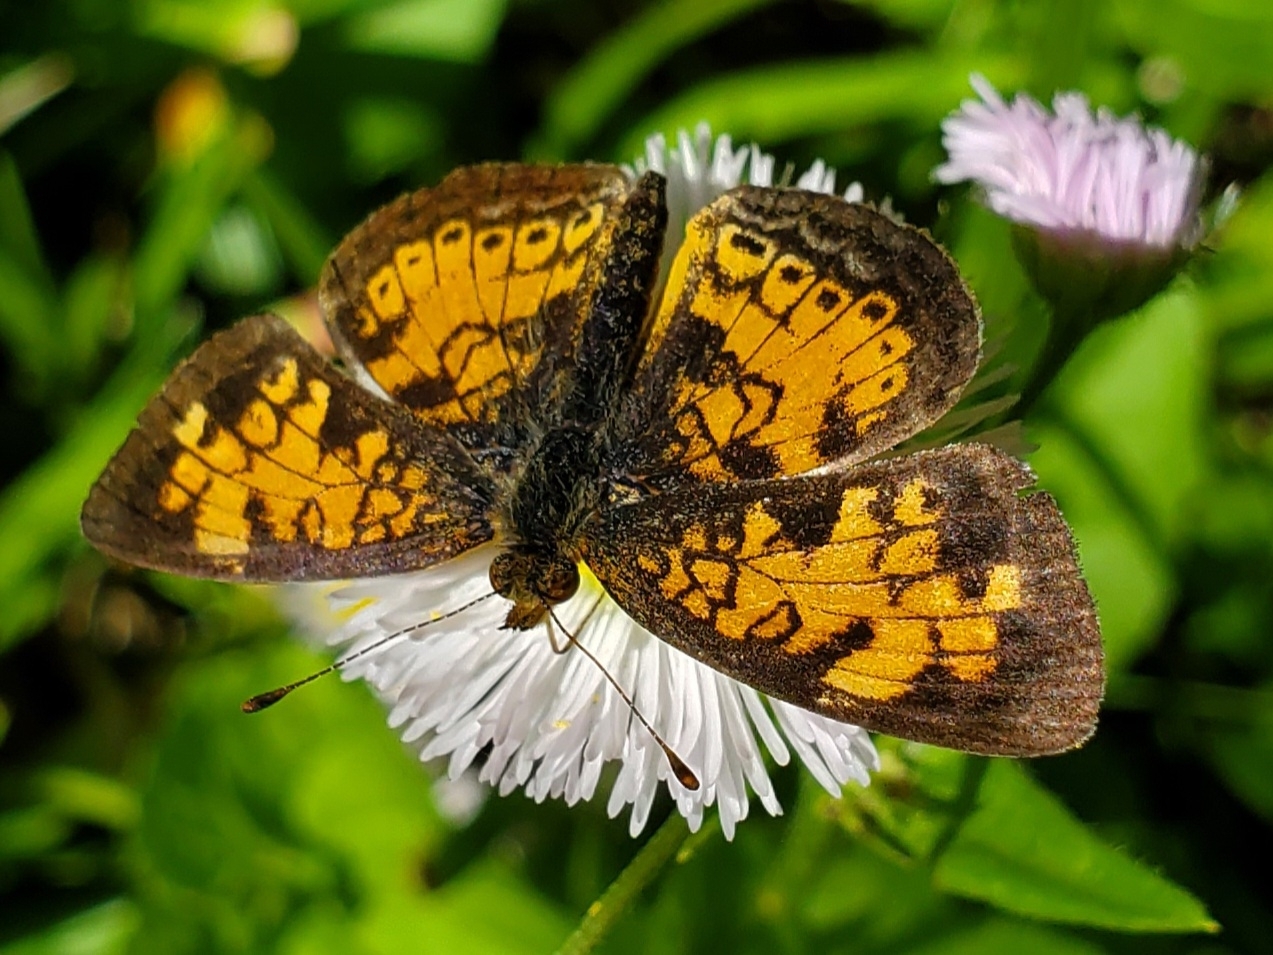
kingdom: Animalia
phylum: Arthropoda
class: Insecta
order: Lepidoptera
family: Nymphalidae
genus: Phyciodes
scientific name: Phyciodes tharos
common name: Pearl crescent
